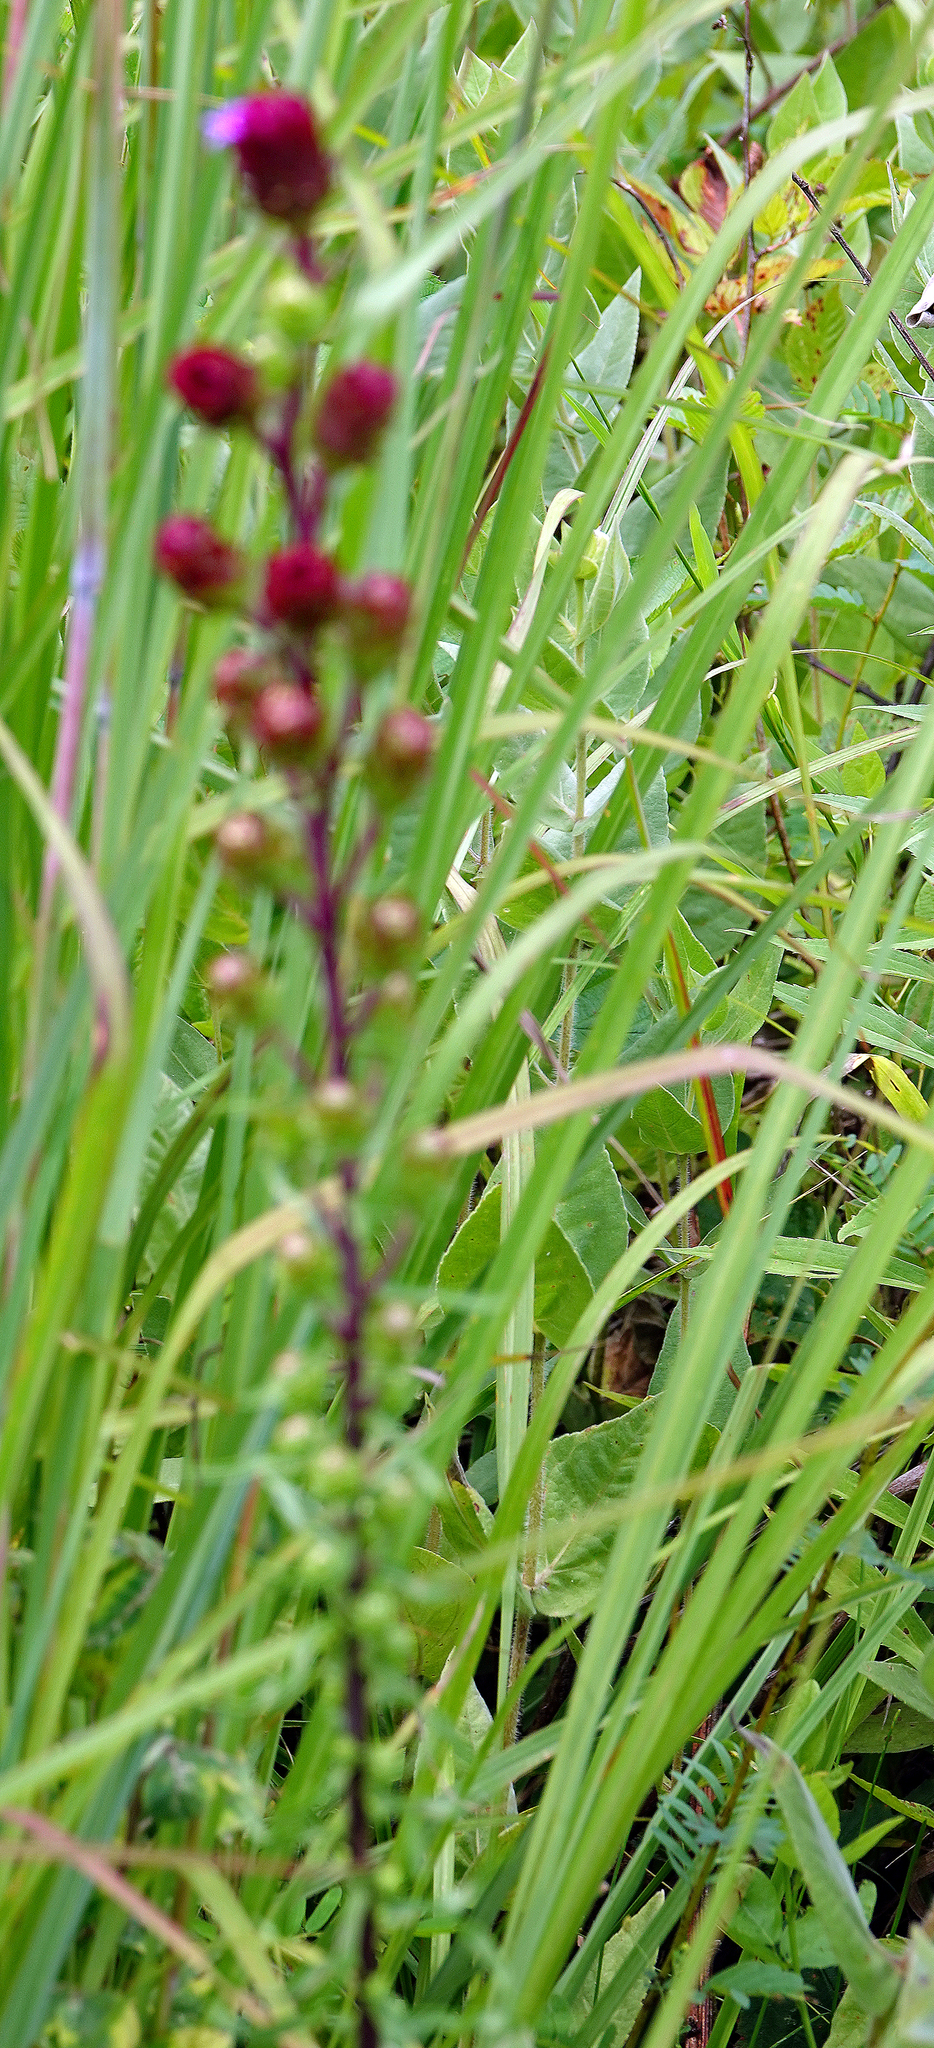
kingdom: Plantae
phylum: Tracheophyta
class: Magnoliopsida
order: Asterales
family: Asteraceae
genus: Liatris
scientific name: Liatris scariosa
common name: Northern gayfeather
